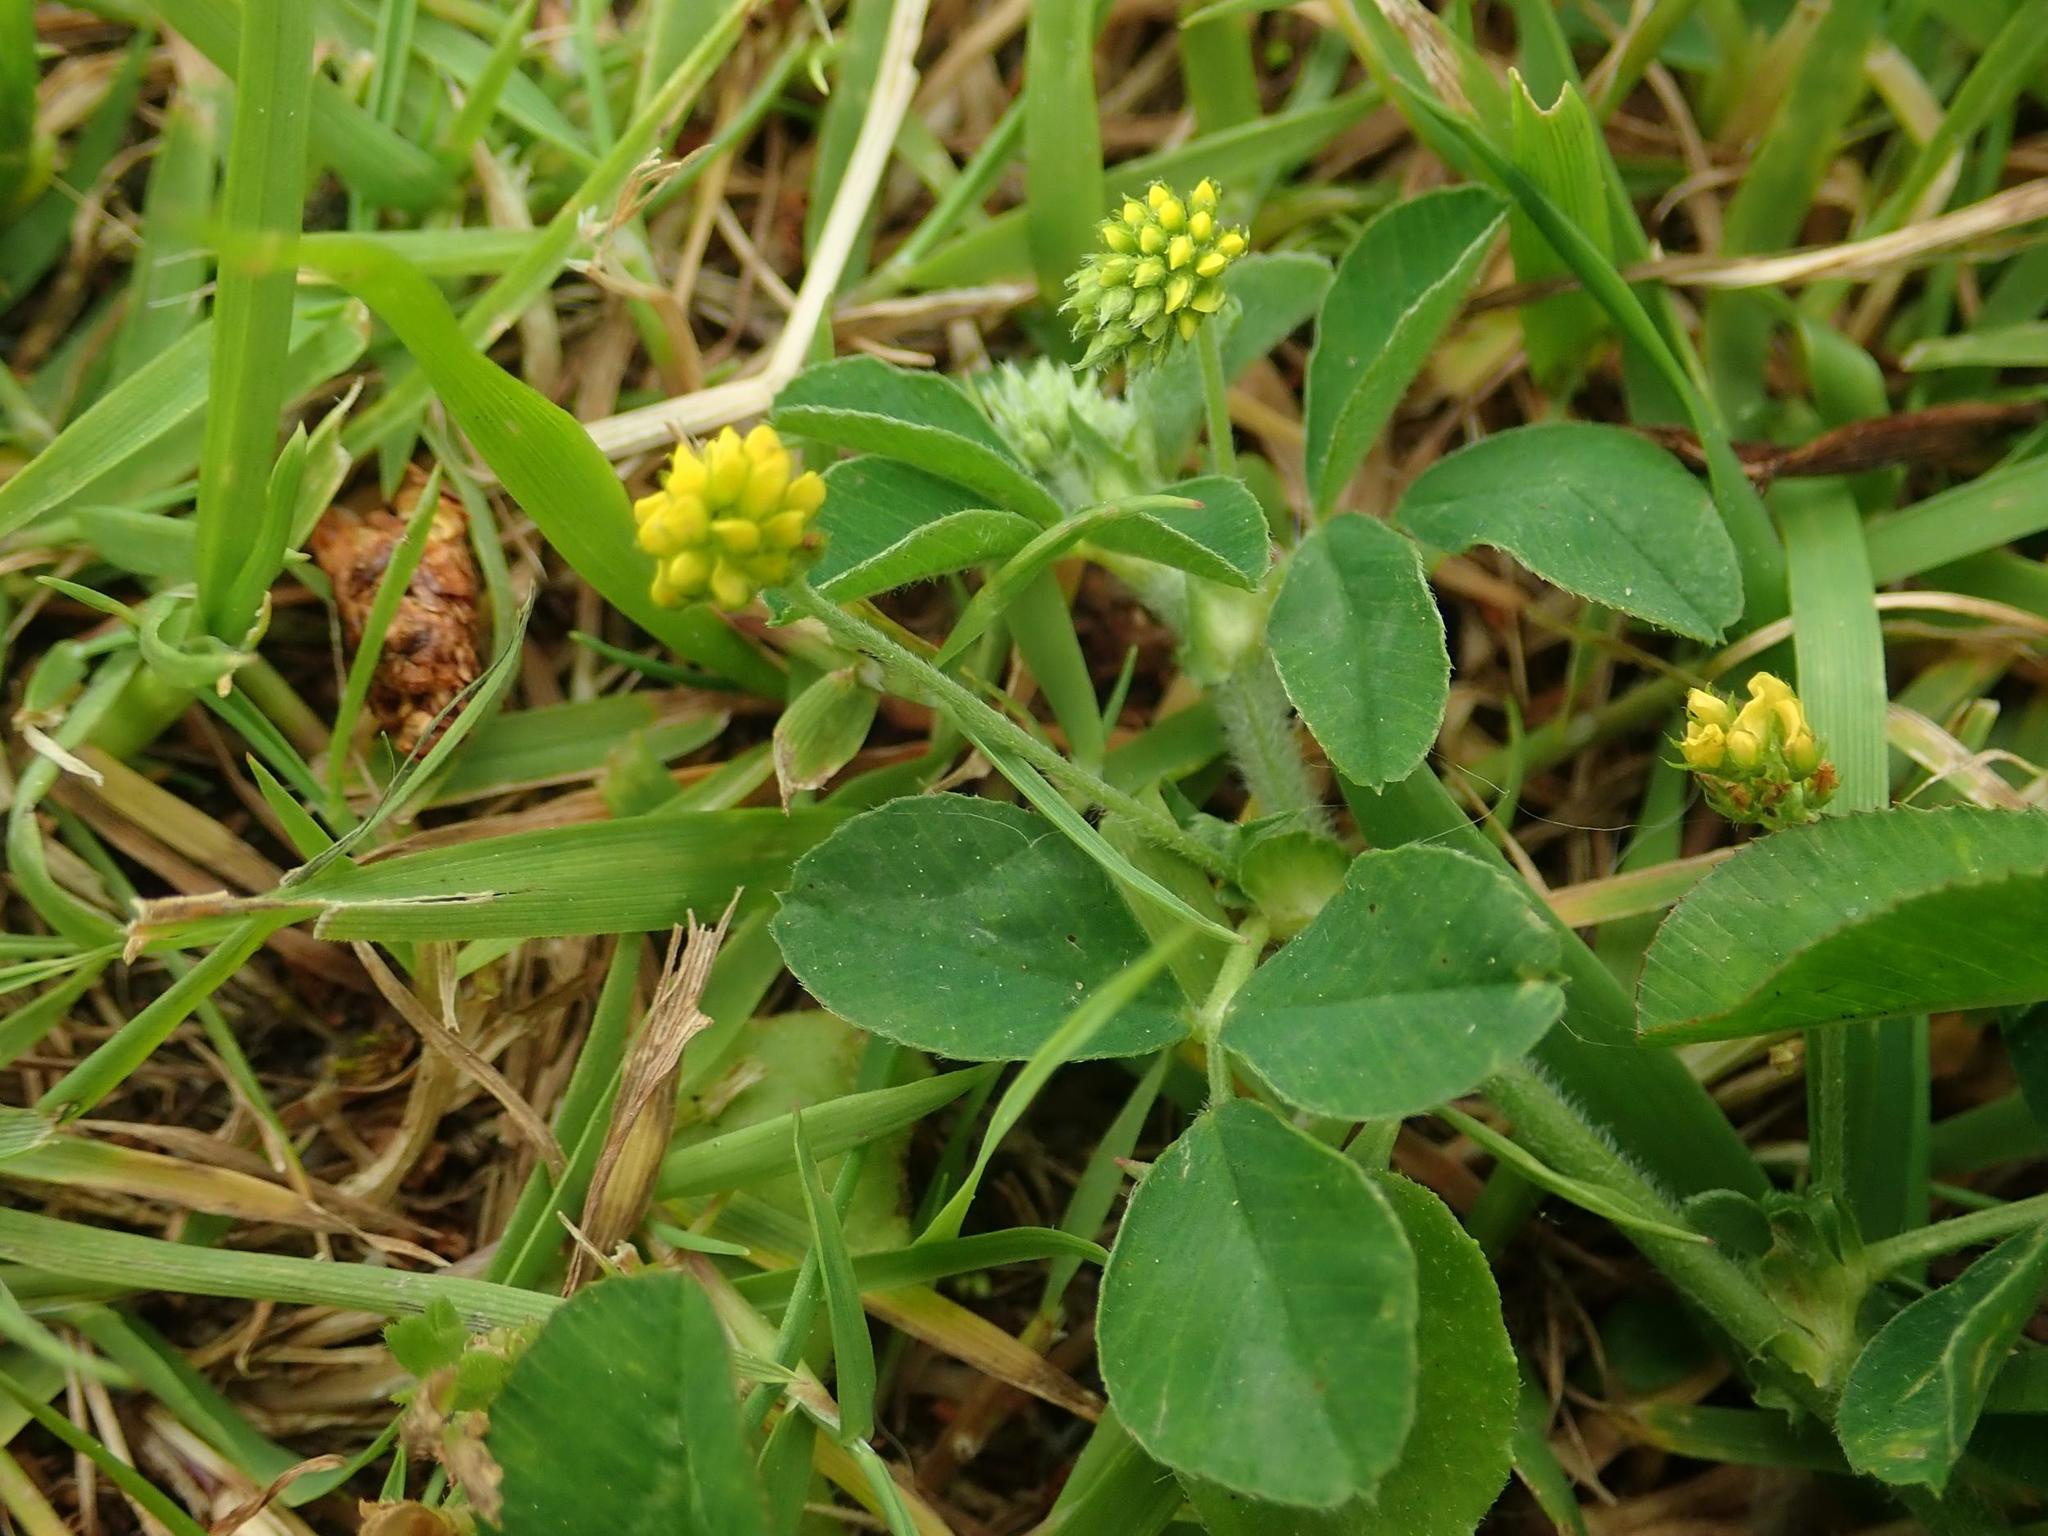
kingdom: Plantae
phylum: Tracheophyta
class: Magnoliopsida
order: Fabales
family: Fabaceae
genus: Medicago
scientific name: Medicago lupulina
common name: Black medick
